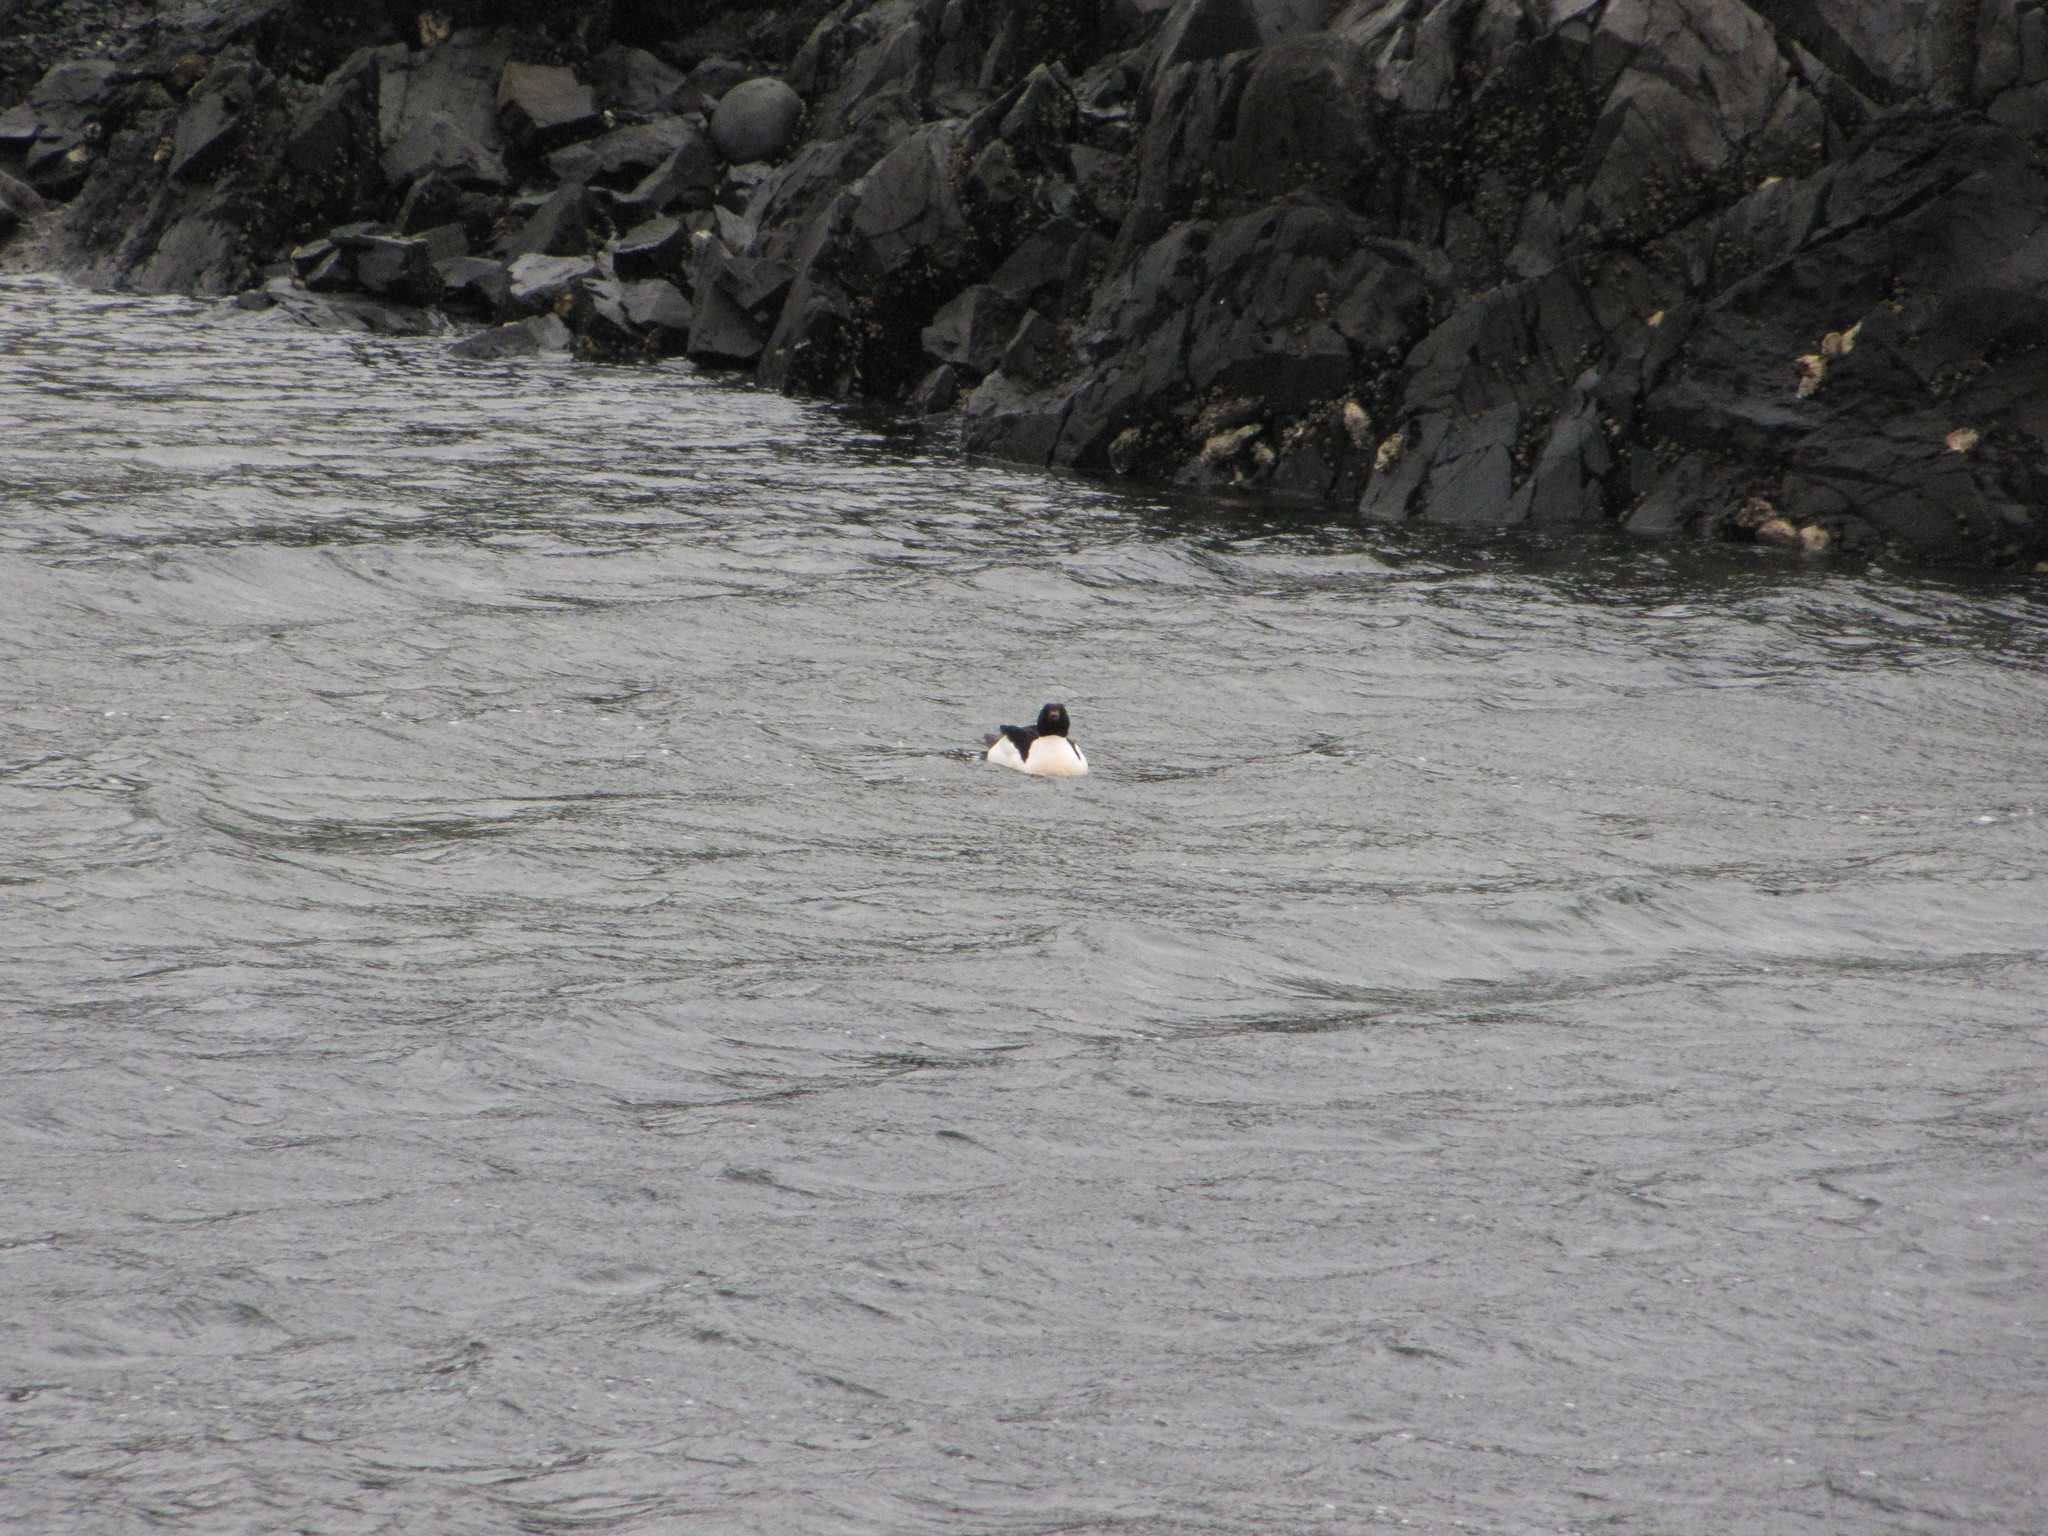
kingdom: Animalia
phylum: Chordata
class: Aves
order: Anseriformes
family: Anatidae
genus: Mergus
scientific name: Mergus merganser
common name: Common merganser
